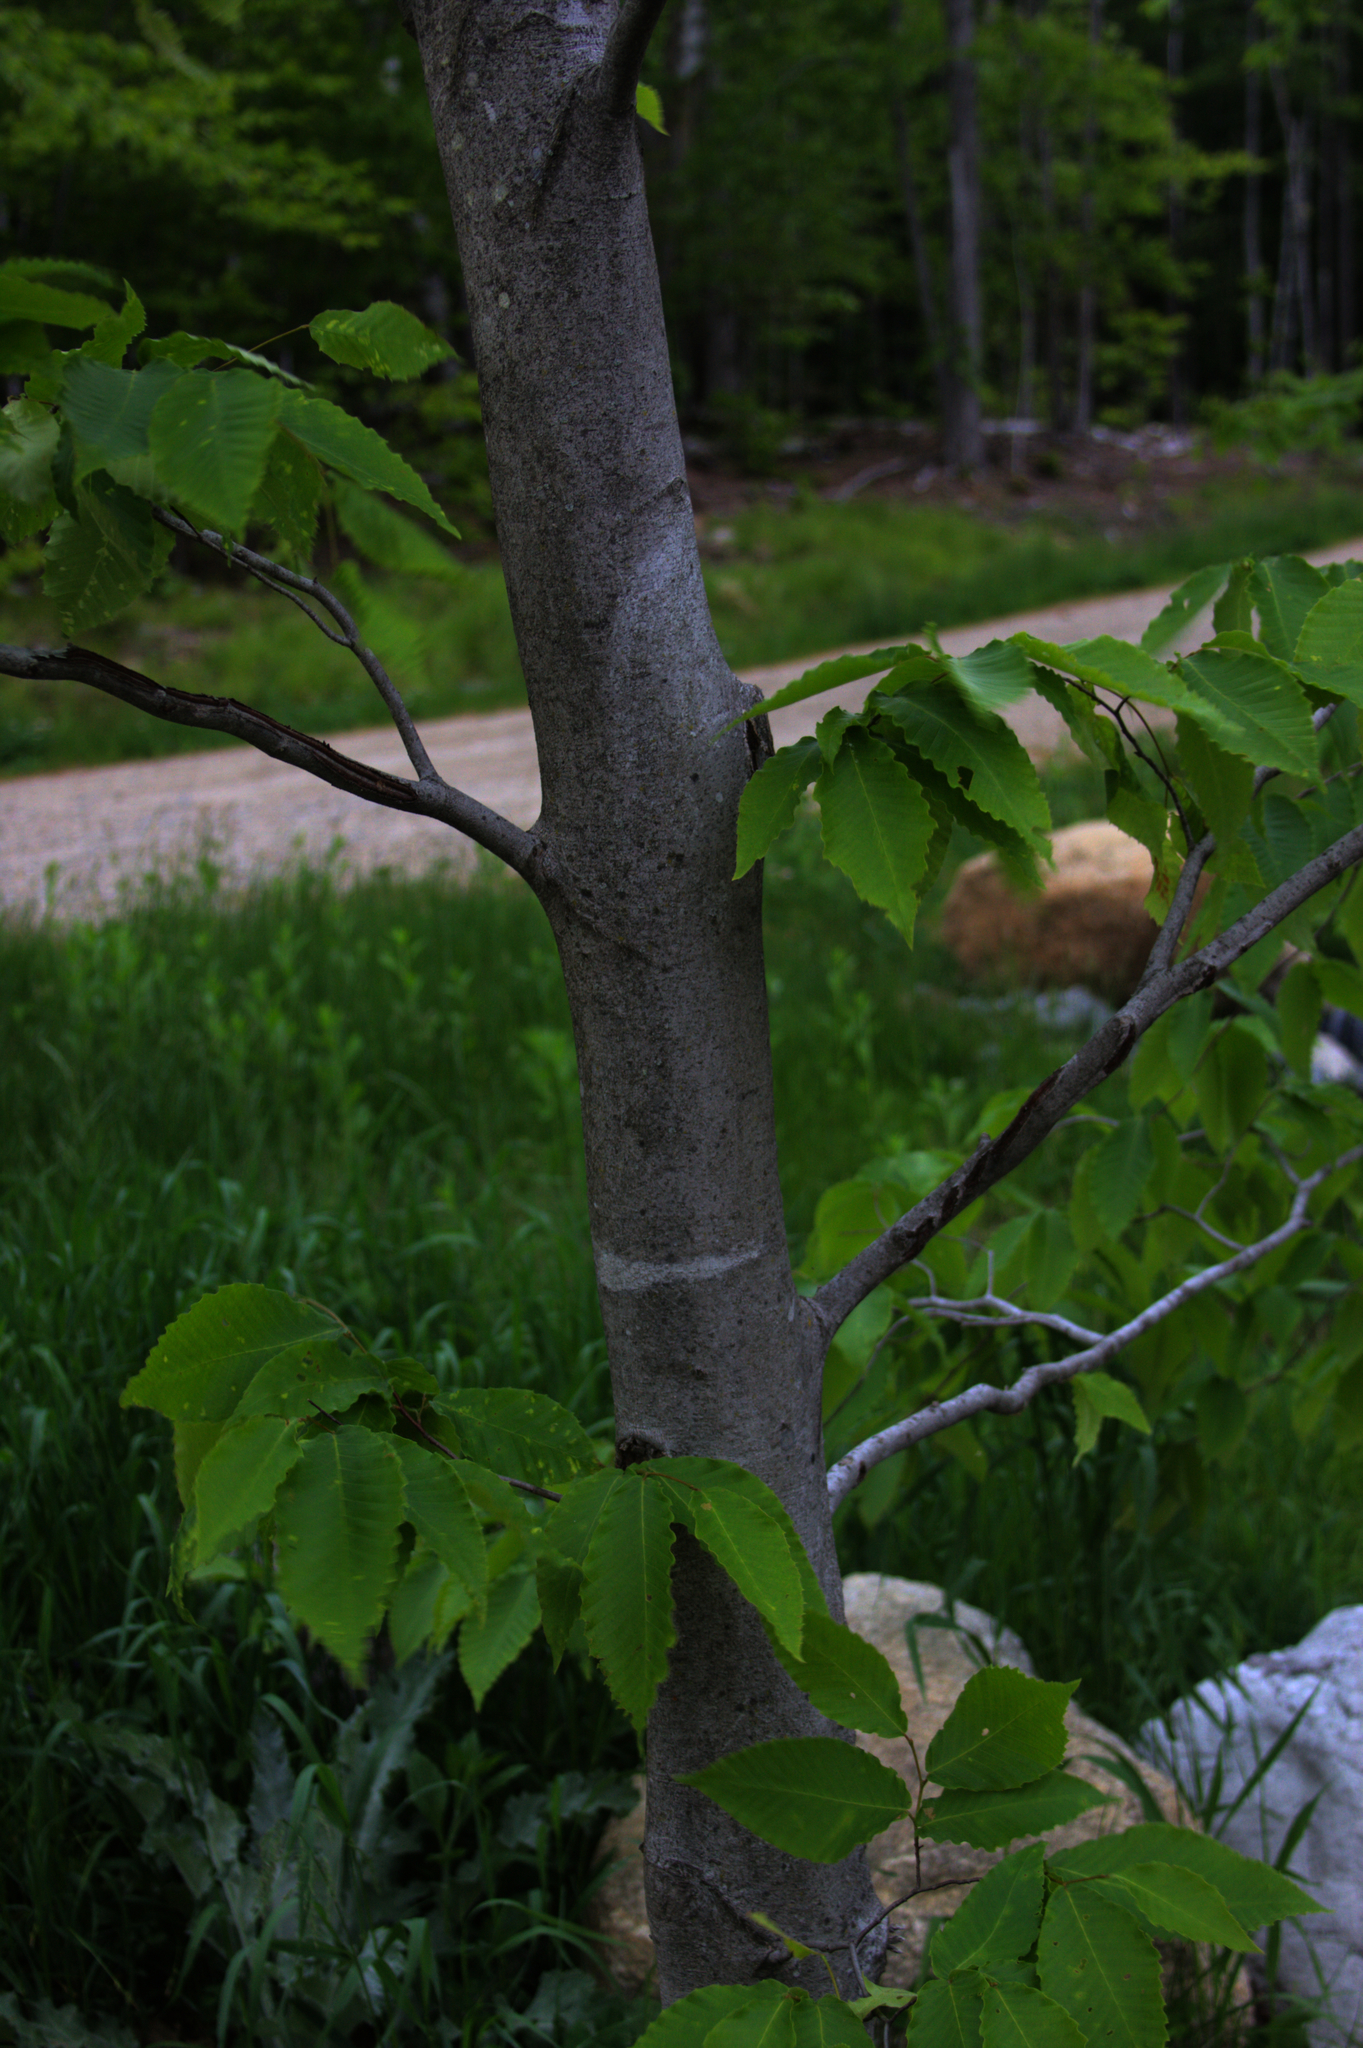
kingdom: Plantae
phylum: Tracheophyta
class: Magnoliopsida
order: Fagales
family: Fagaceae
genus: Fagus
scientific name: Fagus grandifolia
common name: American beech
